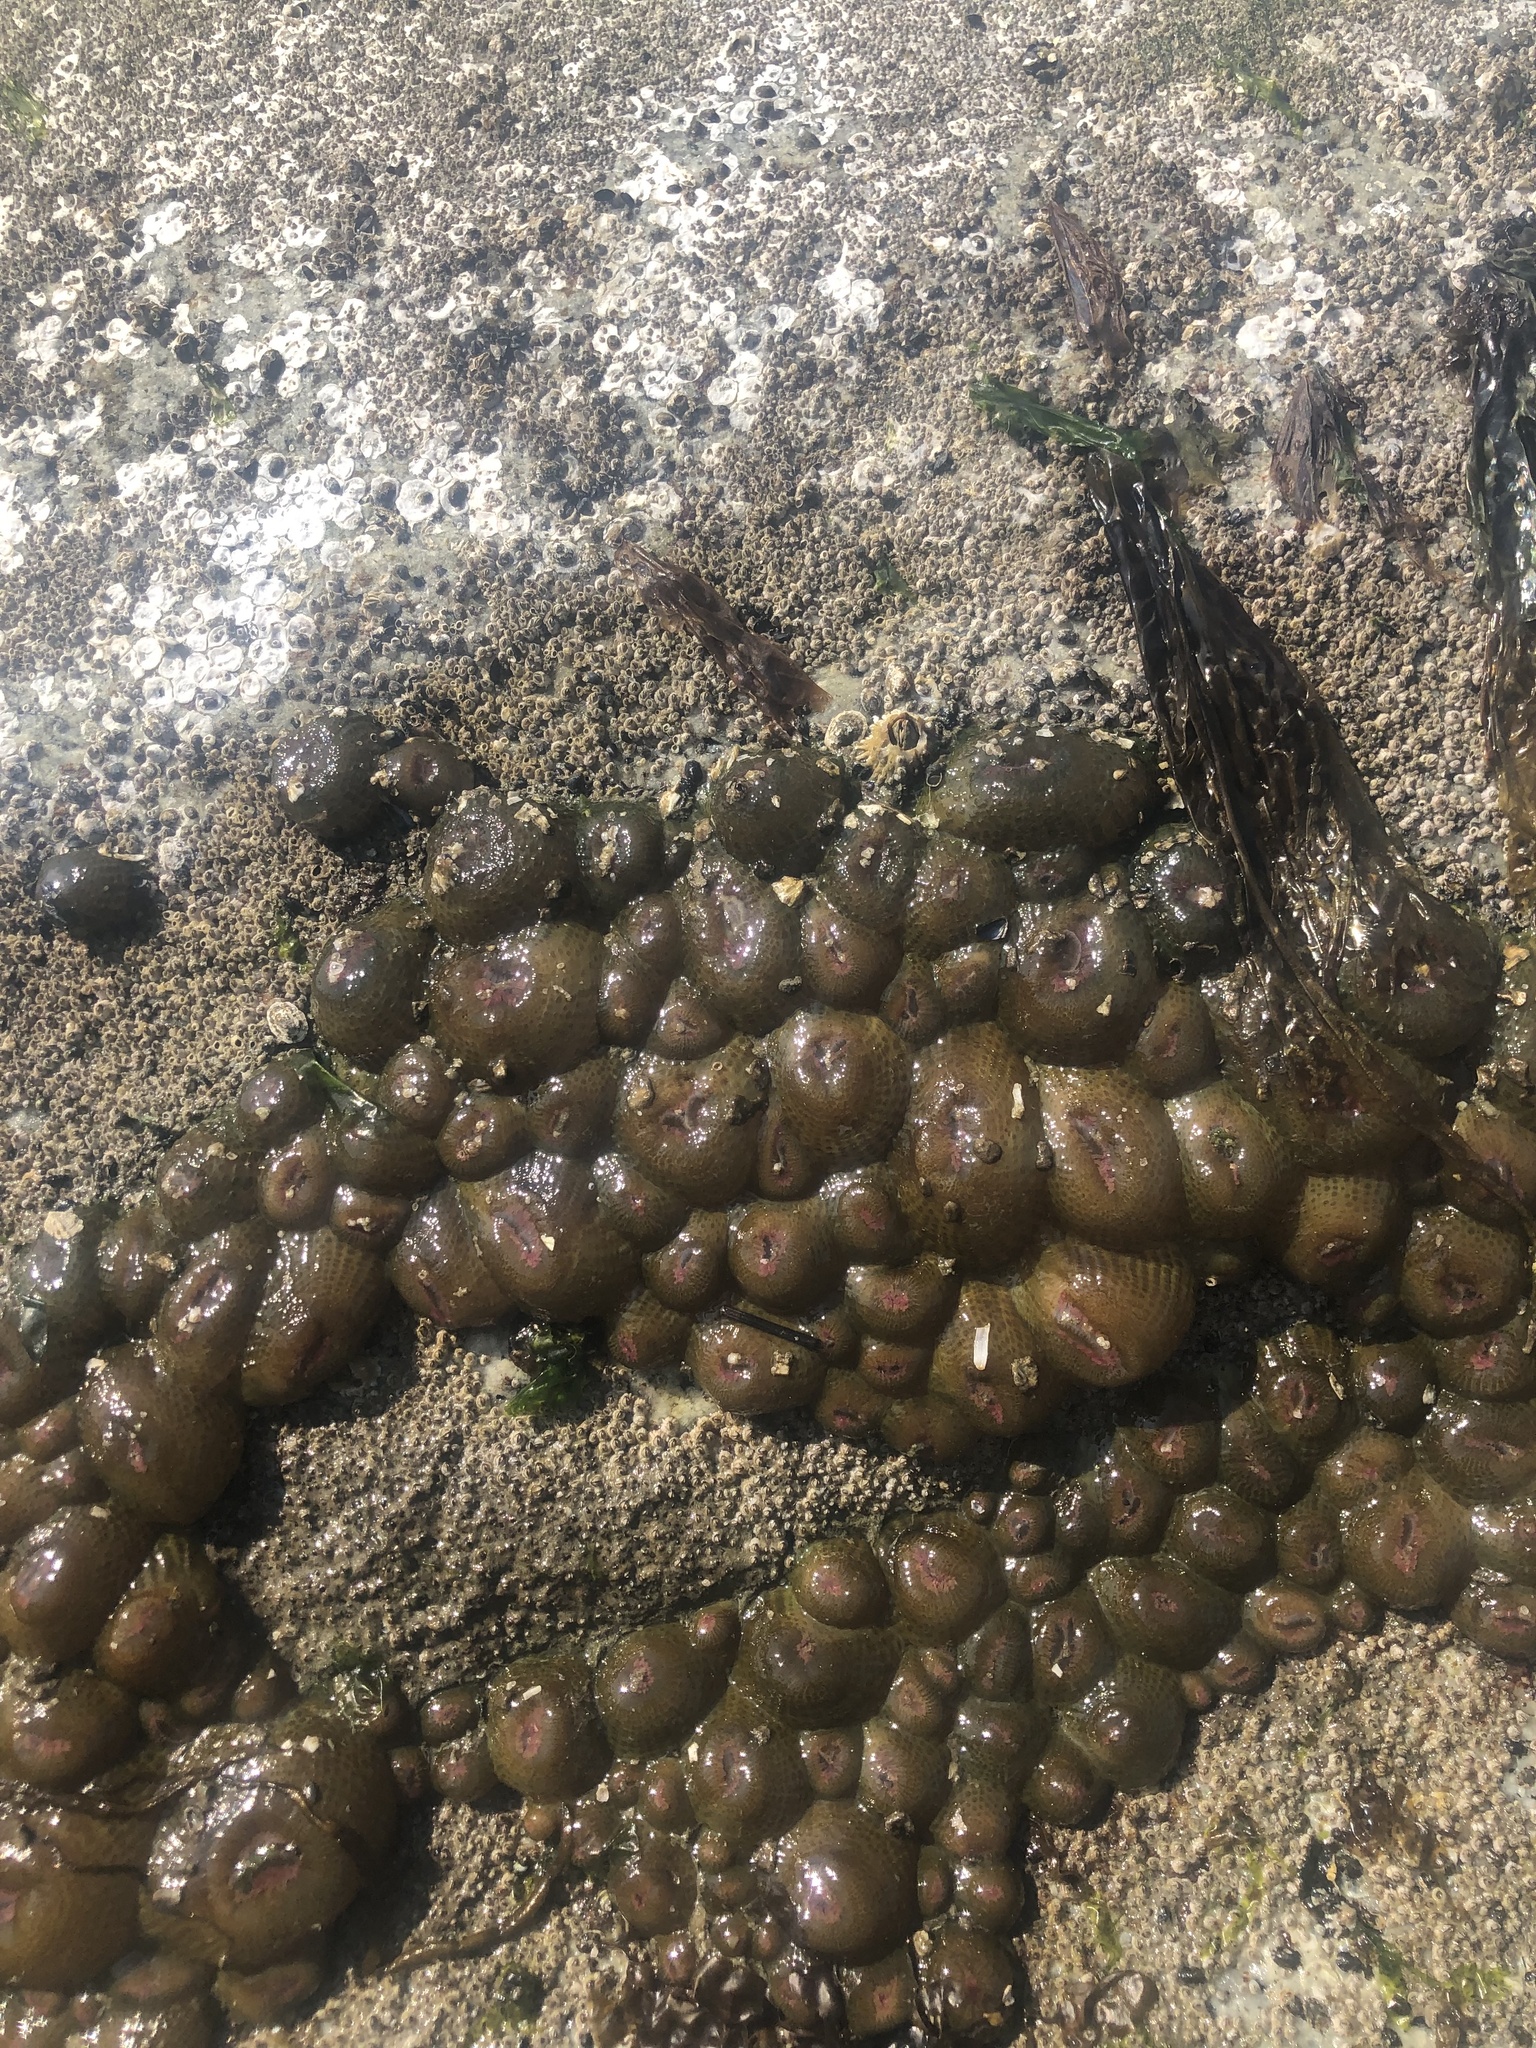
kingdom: Animalia
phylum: Cnidaria
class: Anthozoa
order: Actiniaria
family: Actiniidae
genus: Anthopleura
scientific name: Anthopleura elegantissima
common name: Clonal anemone
